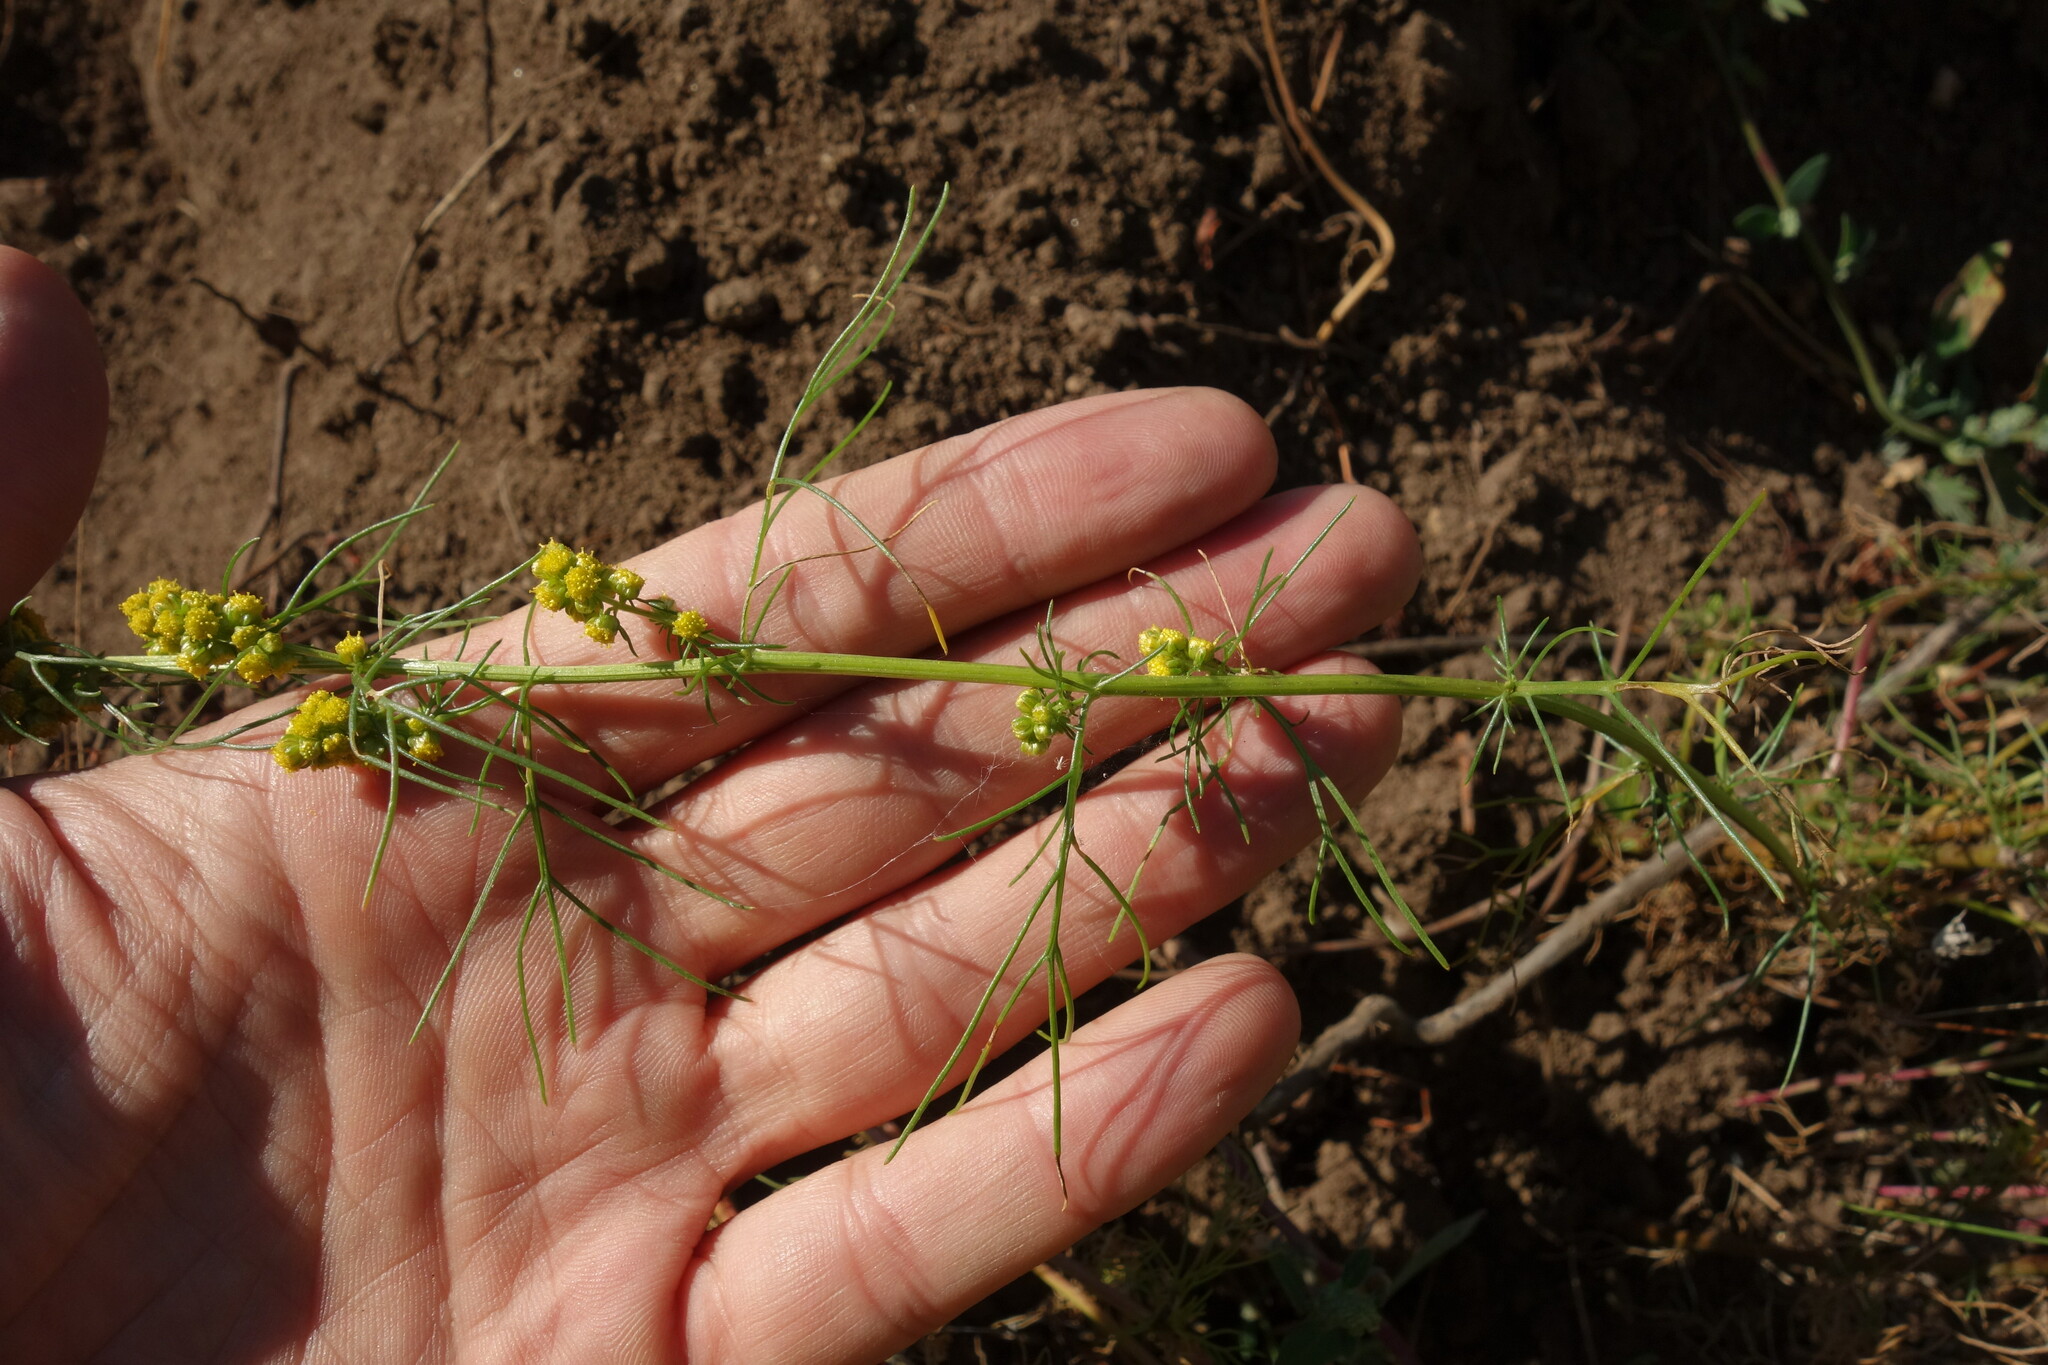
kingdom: Plantae
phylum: Tracheophyta
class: Magnoliopsida
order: Asterales
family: Asteraceae
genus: Artemisia
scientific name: Artemisia palustris
